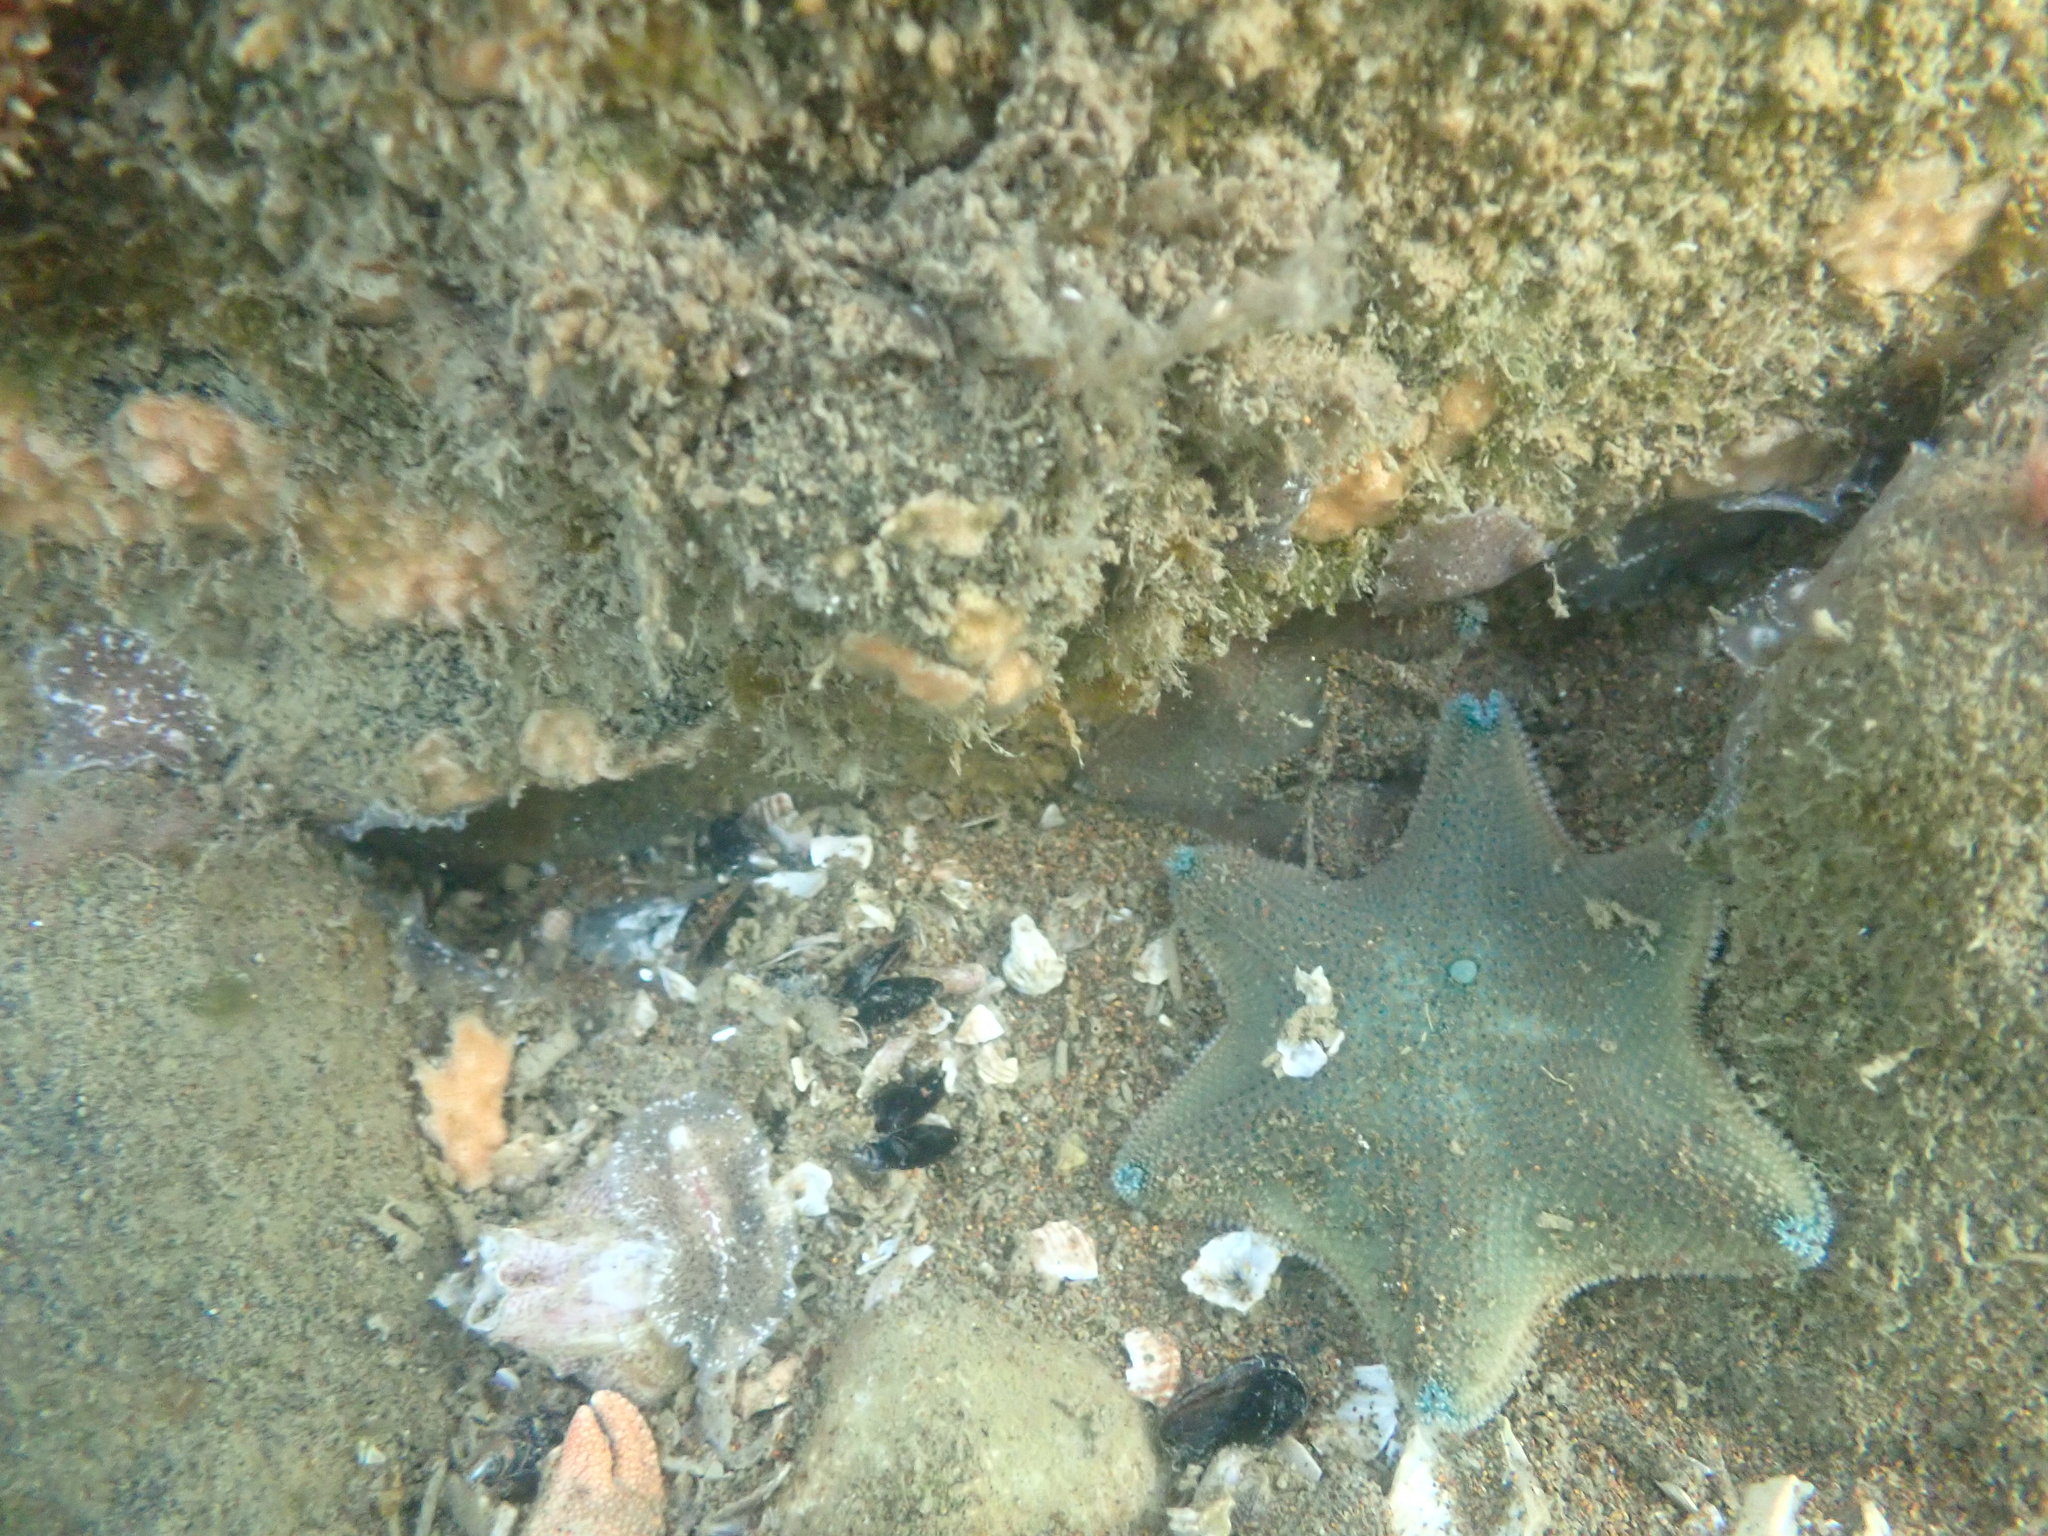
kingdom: Animalia
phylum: Echinodermata
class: Asteroidea
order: Valvatida
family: Asterinidae
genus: Patiriella
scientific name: Patiriella regularis
